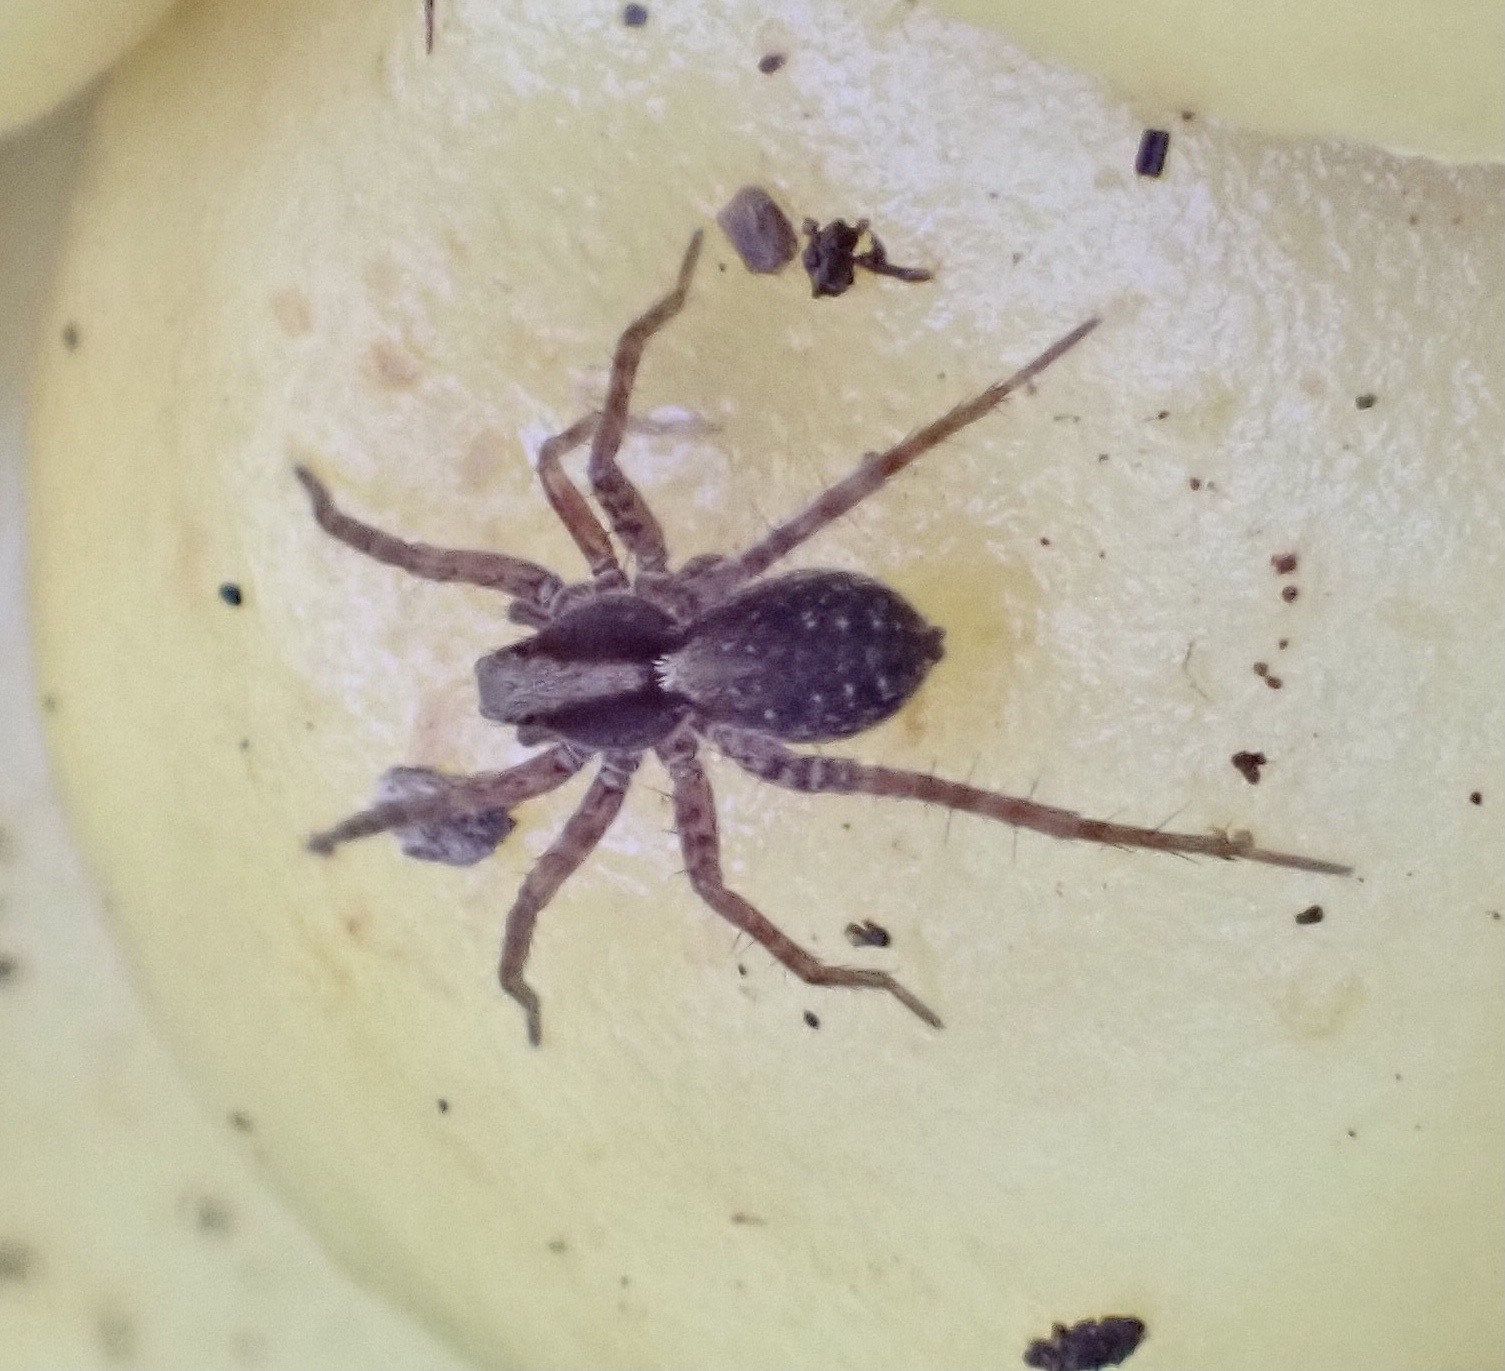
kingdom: Animalia
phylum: Arthropoda
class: Arachnida
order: Araneae
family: Lycosidae
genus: Pardosa
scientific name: Pardosa
